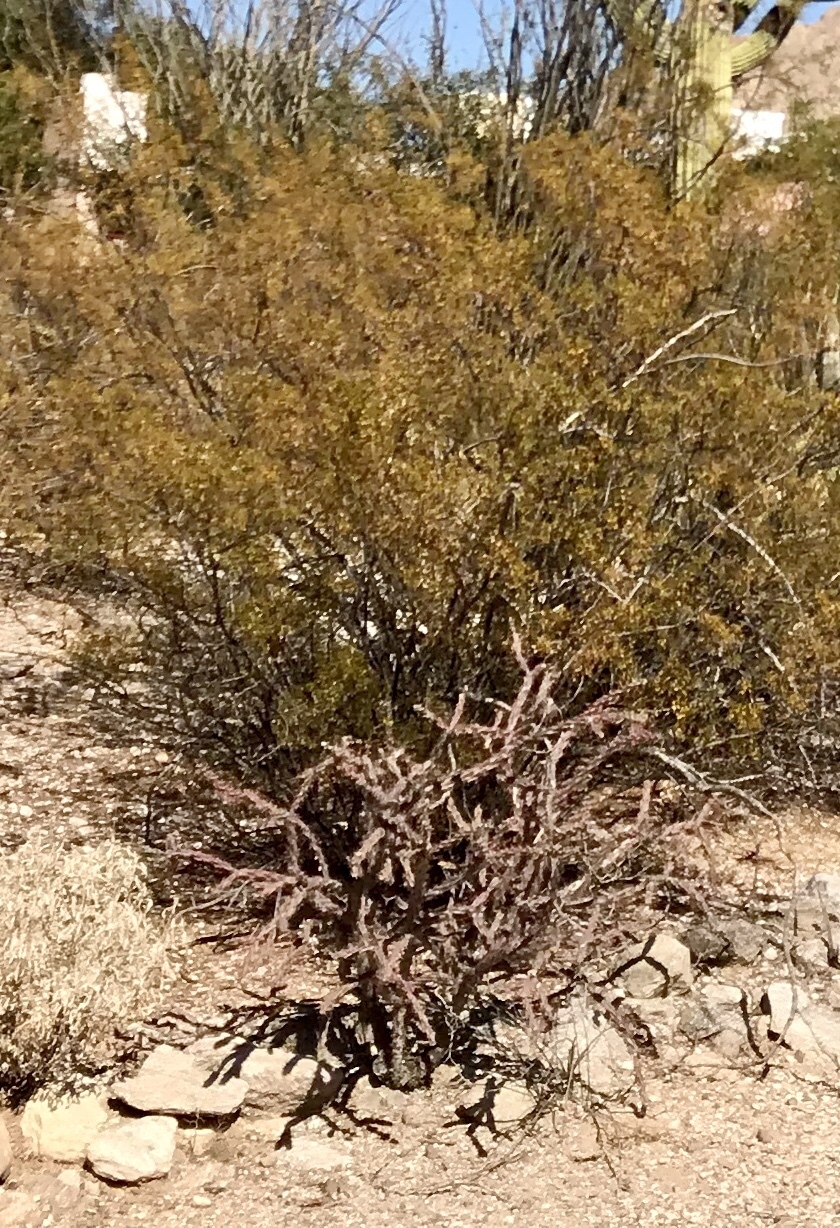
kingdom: Plantae
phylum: Tracheophyta
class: Magnoliopsida
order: Caryophyllales
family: Cactaceae
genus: Cylindropuntia
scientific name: Cylindropuntia thurberi
